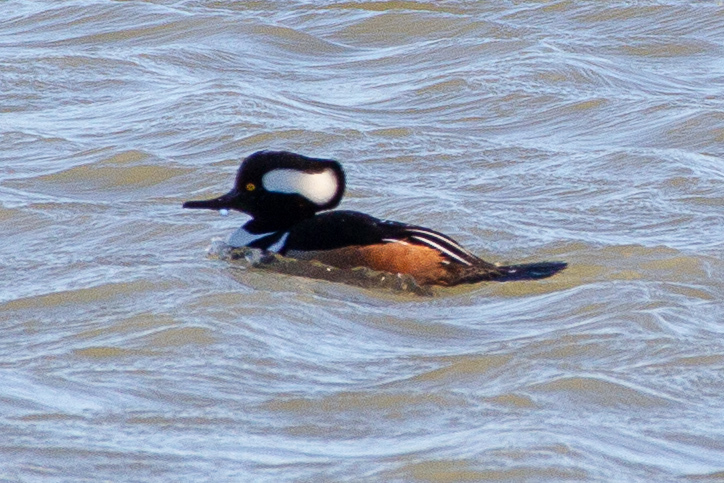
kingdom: Animalia
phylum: Chordata
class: Aves
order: Anseriformes
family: Anatidae
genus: Lophodytes
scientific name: Lophodytes cucullatus
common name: Hooded merganser
